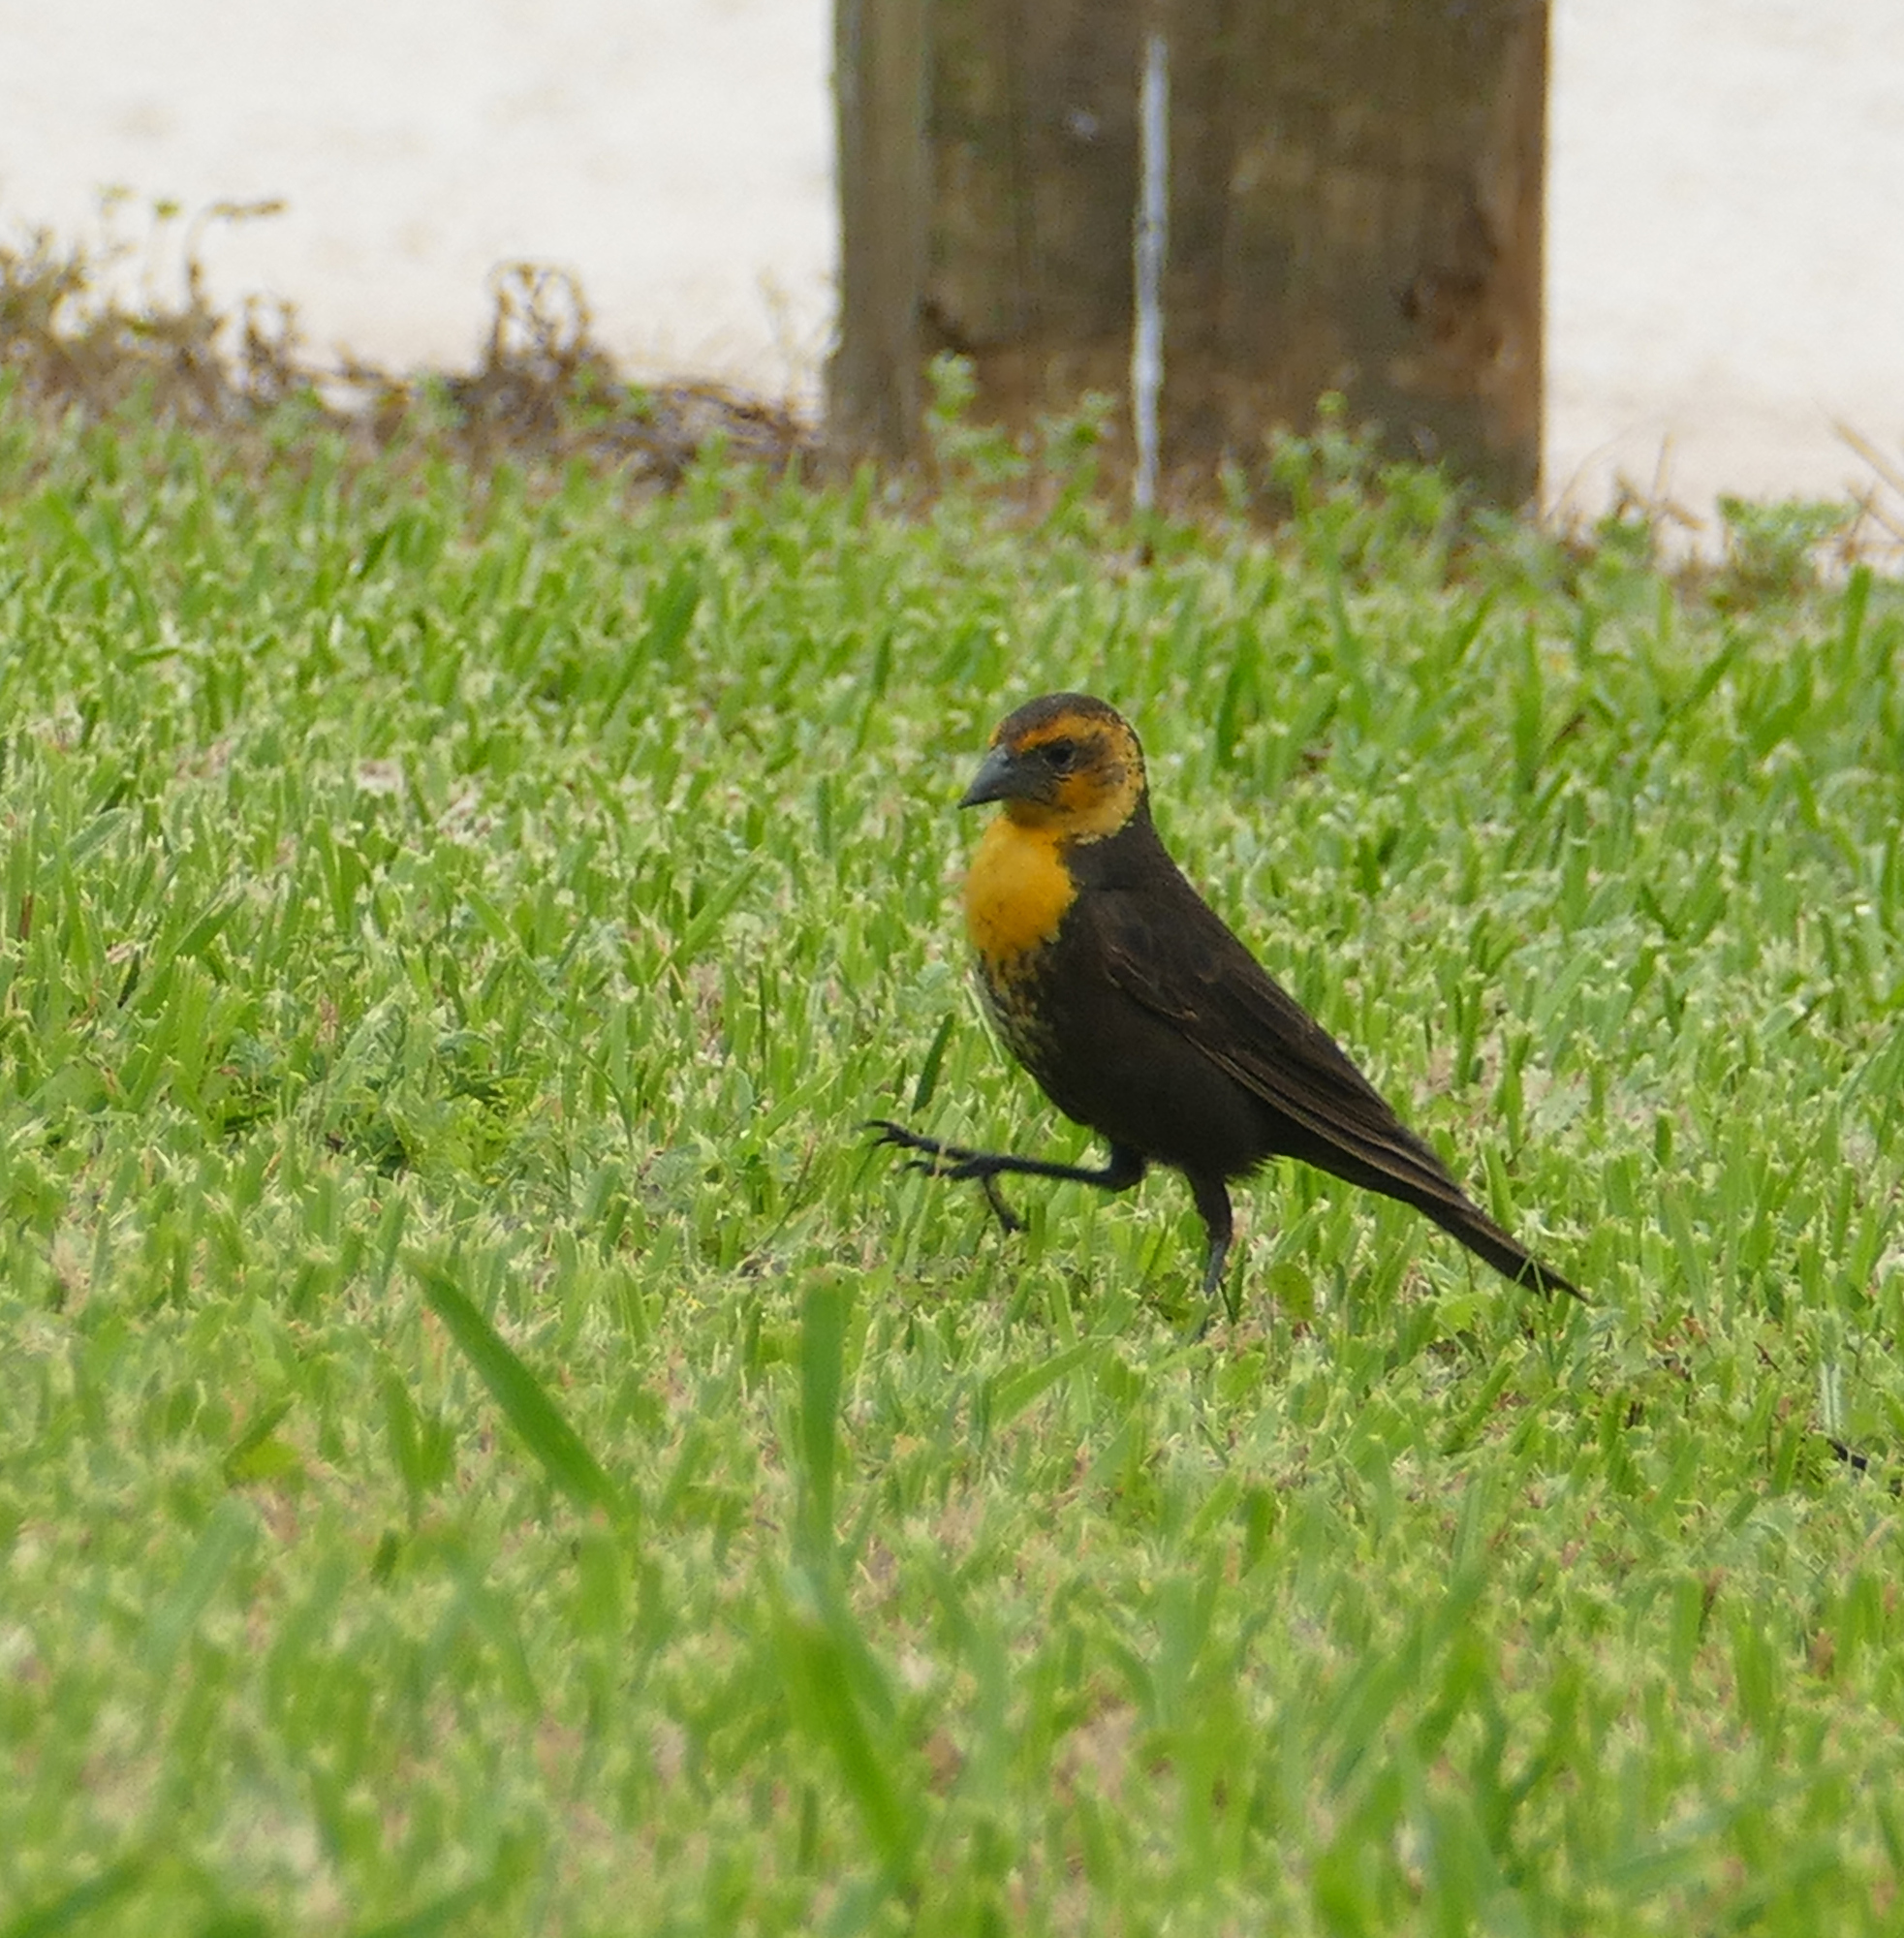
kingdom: Animalia
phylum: Chordata
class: Aves
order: Passeriformes
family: Icteridae
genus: Xanthocephalus
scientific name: Xanthocephalus xanthocephalus
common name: Yellow-headed blackbird
